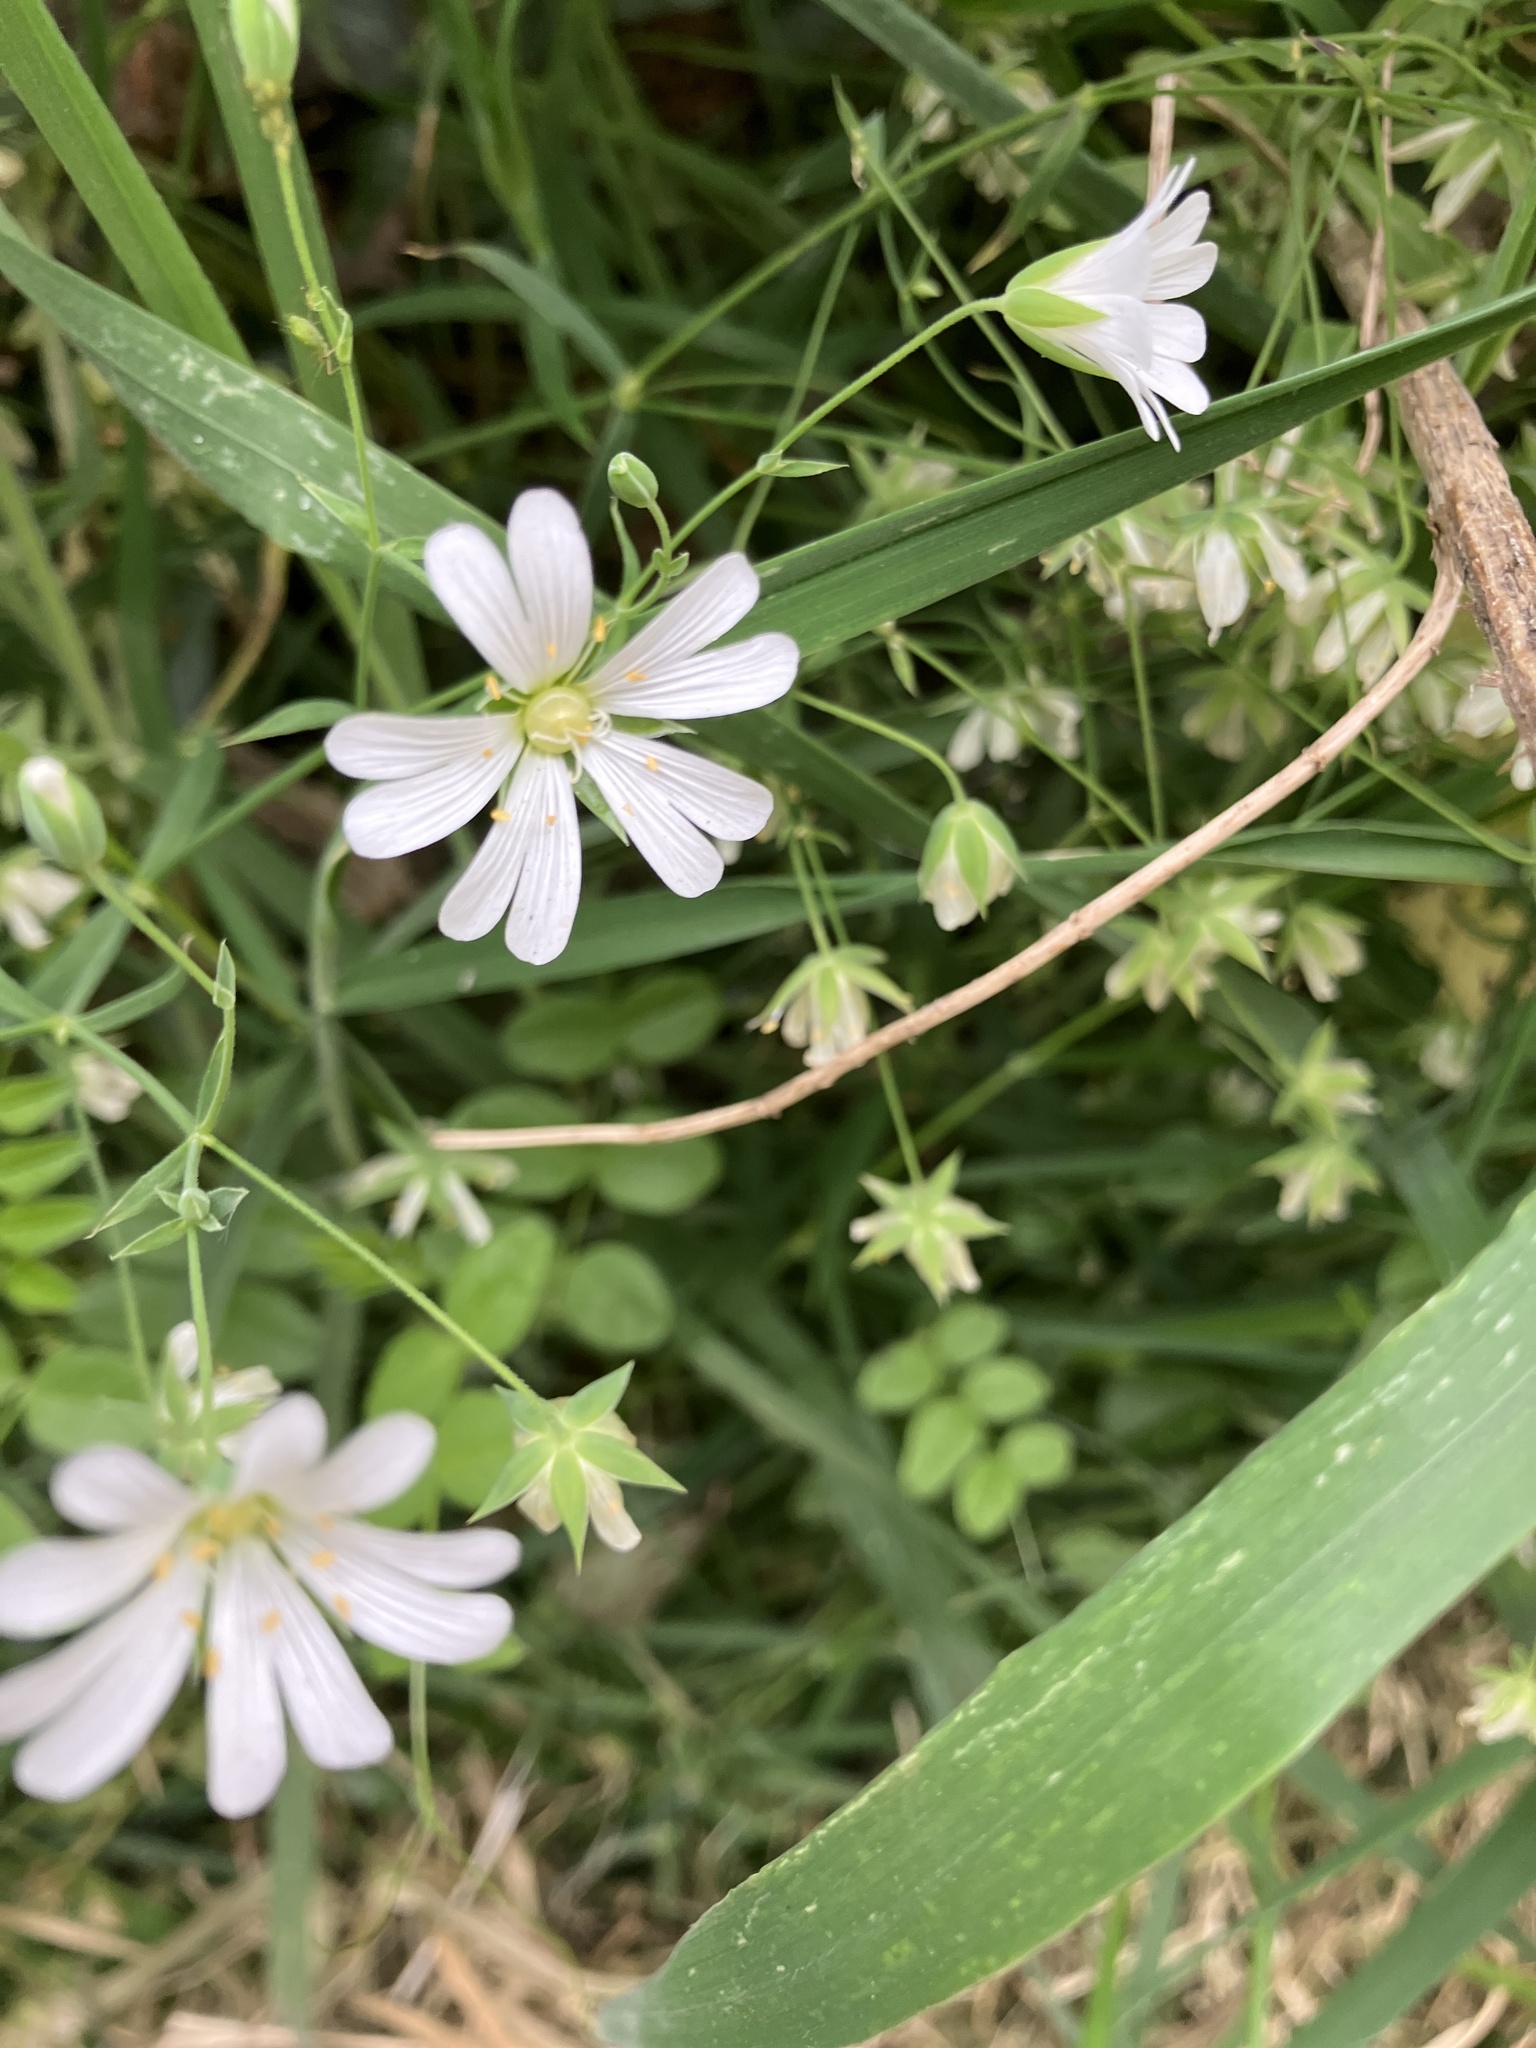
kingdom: Plantae
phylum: Tracheophyta
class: Magnoliopsida
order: Caryophyllales
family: Caryophyllaceae
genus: Rabelera
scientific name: Rabelera holostea
